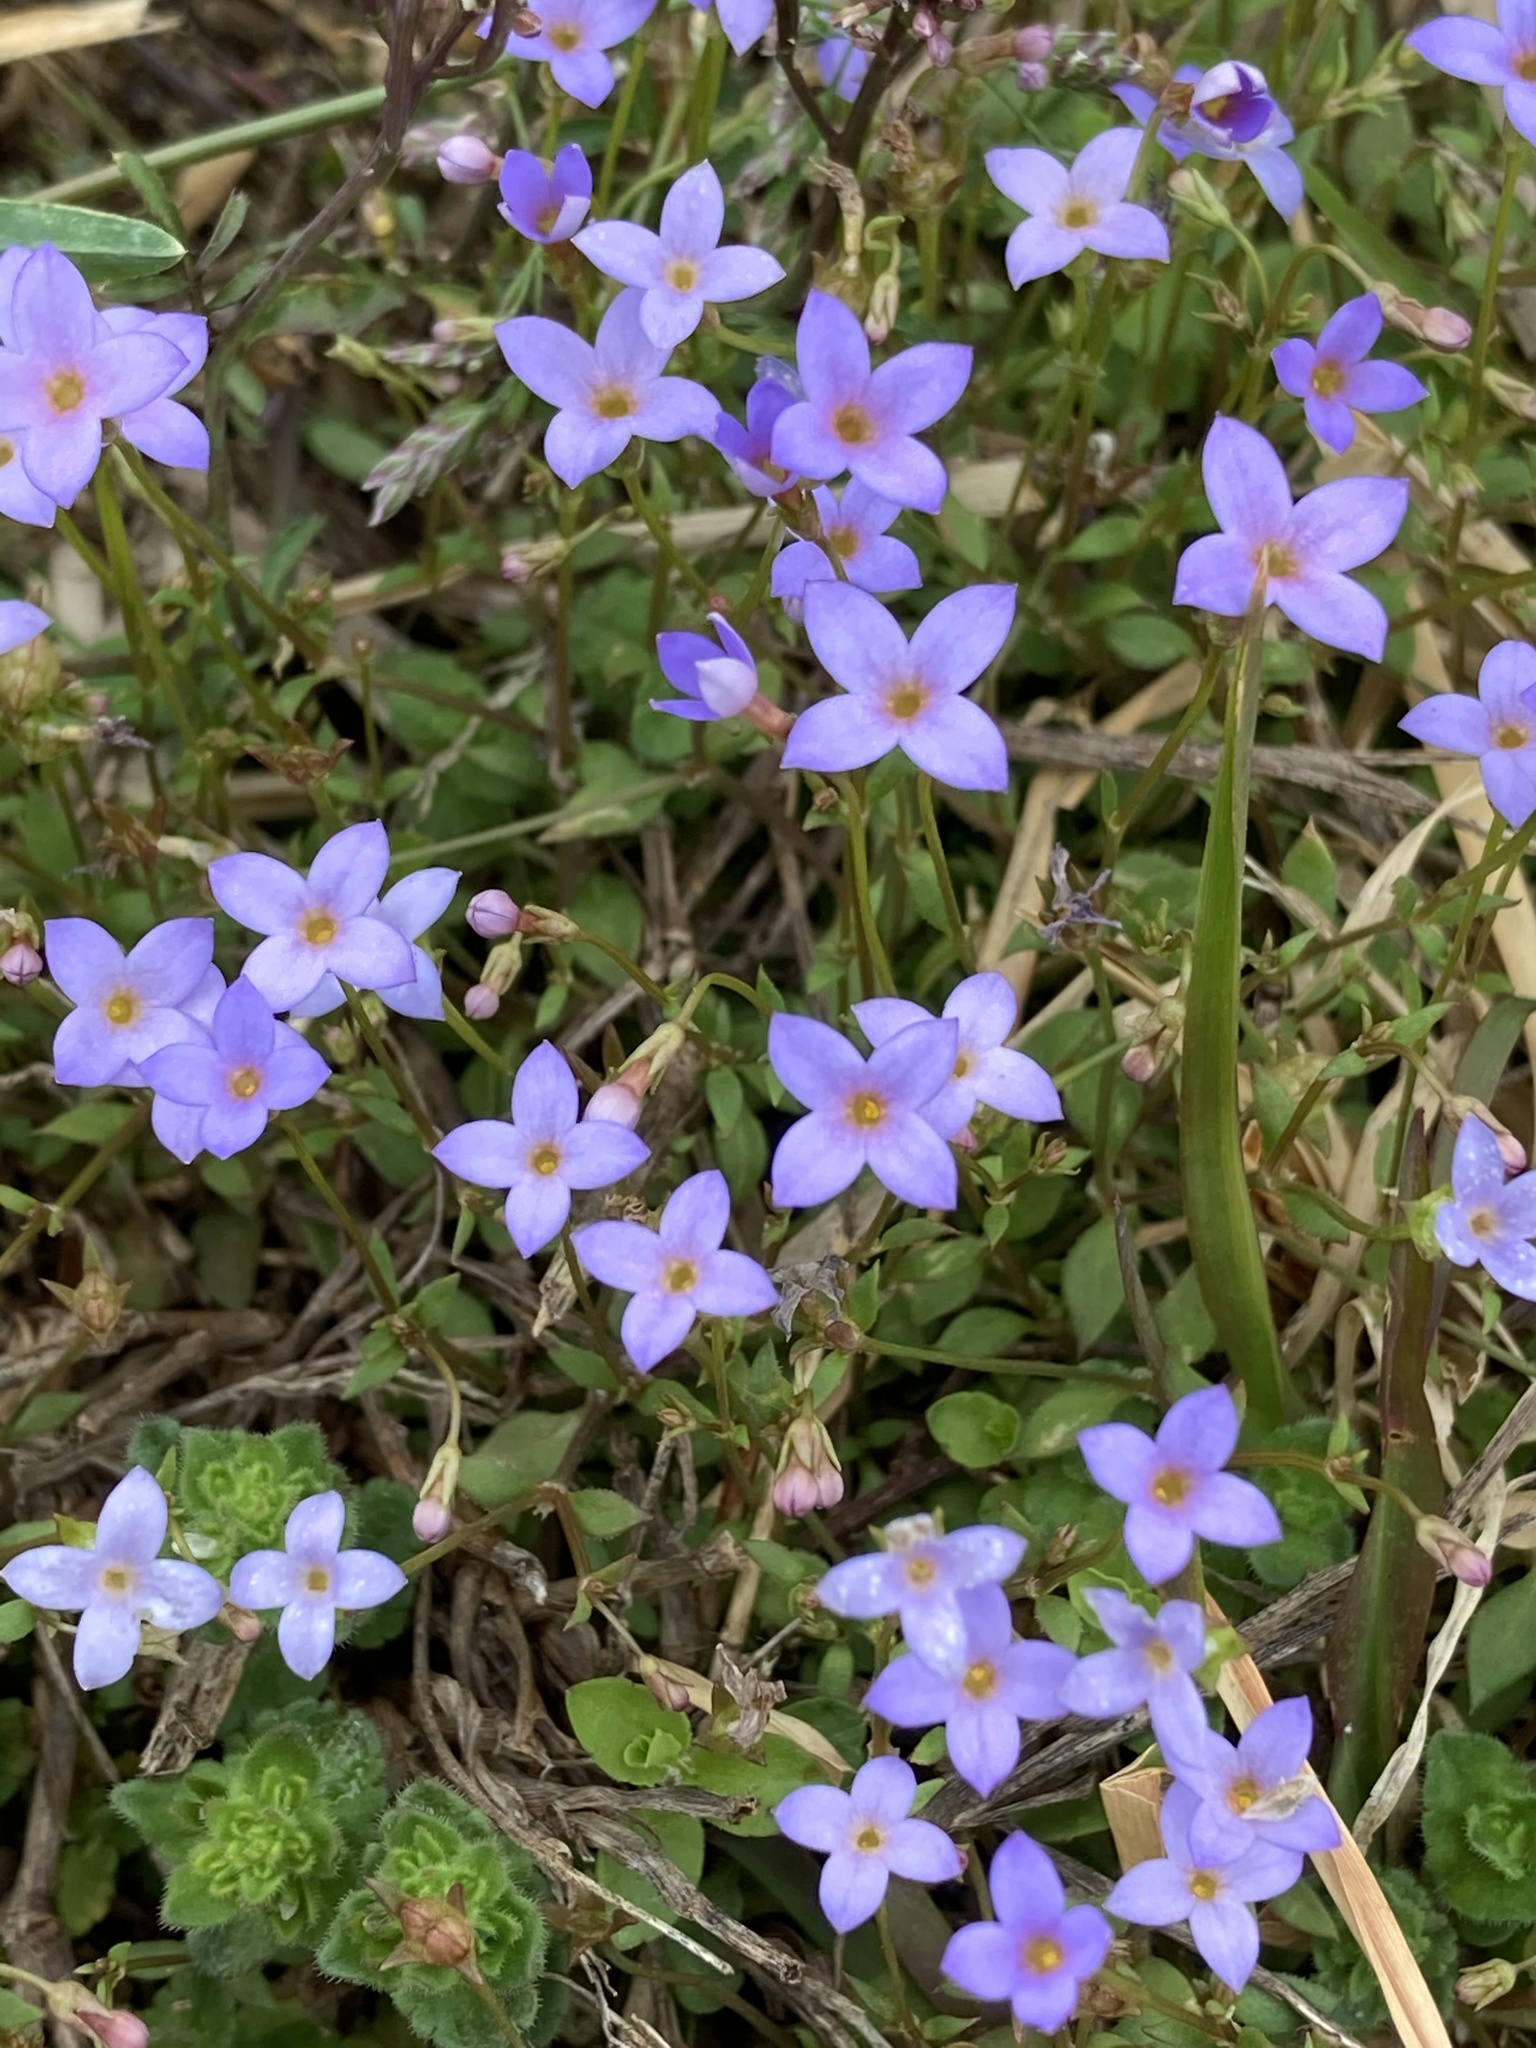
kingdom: Plantae
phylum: Tracheophyta
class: Magnoliopsida
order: Gentianales
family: Rubiaceae
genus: Houstonia
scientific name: Houstonia pusilla
